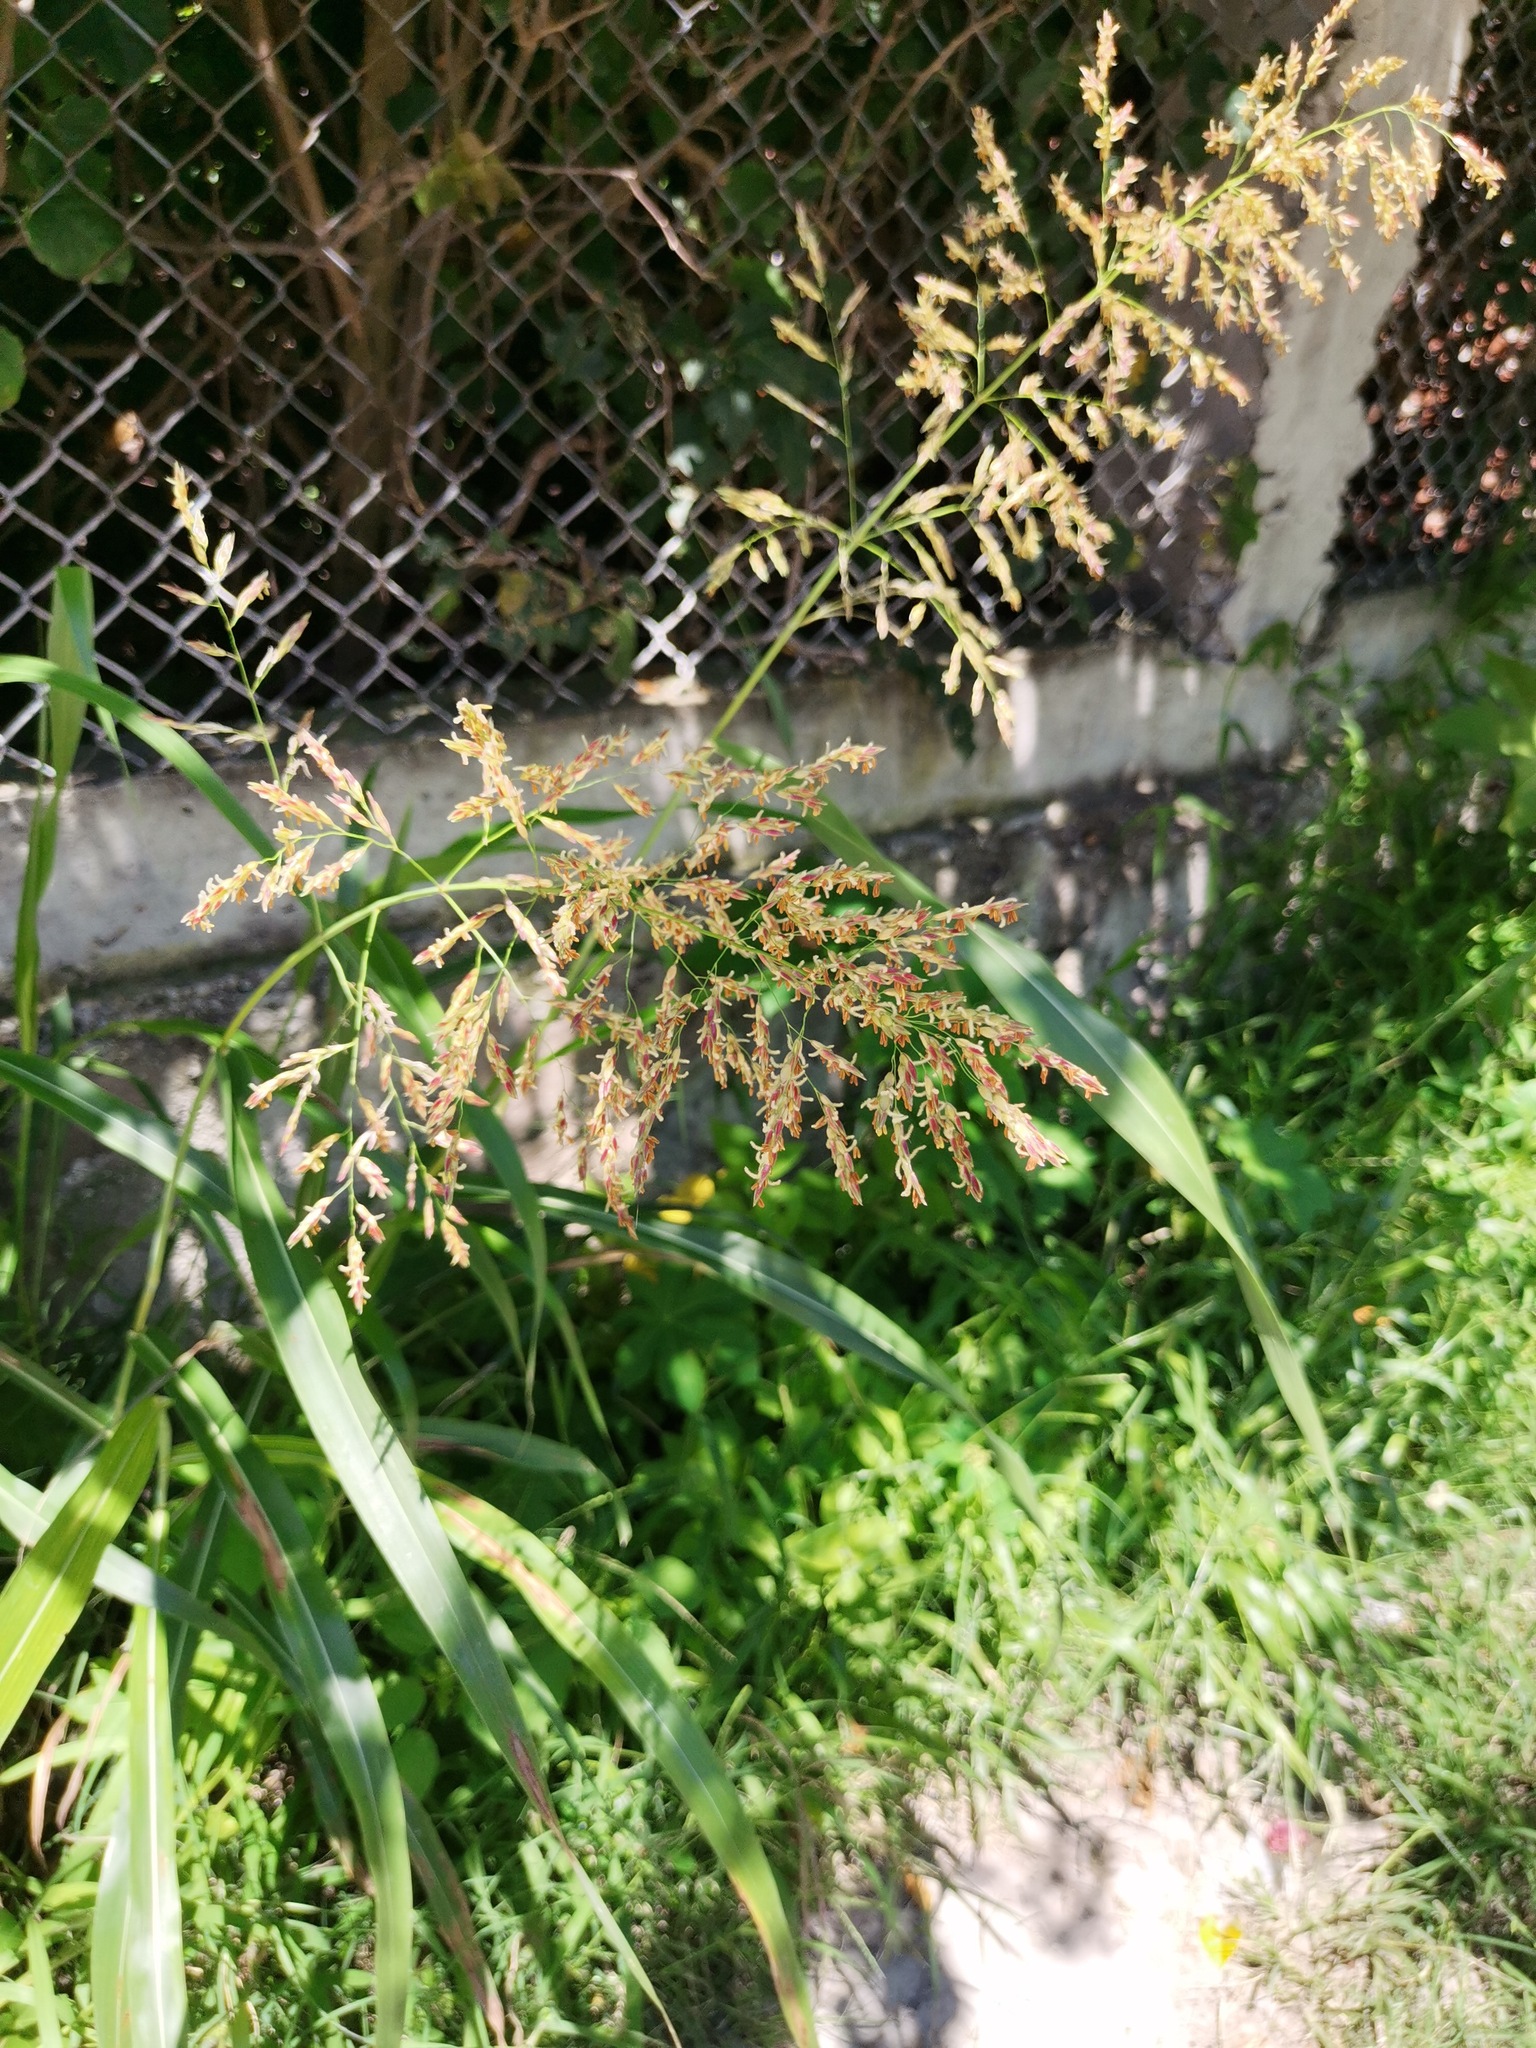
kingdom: Plantae
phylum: Tracheophyta
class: Liliopsida
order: Poales
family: Poaceae
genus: Sorghum
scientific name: Sorghum halepense
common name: Johnson-grass
